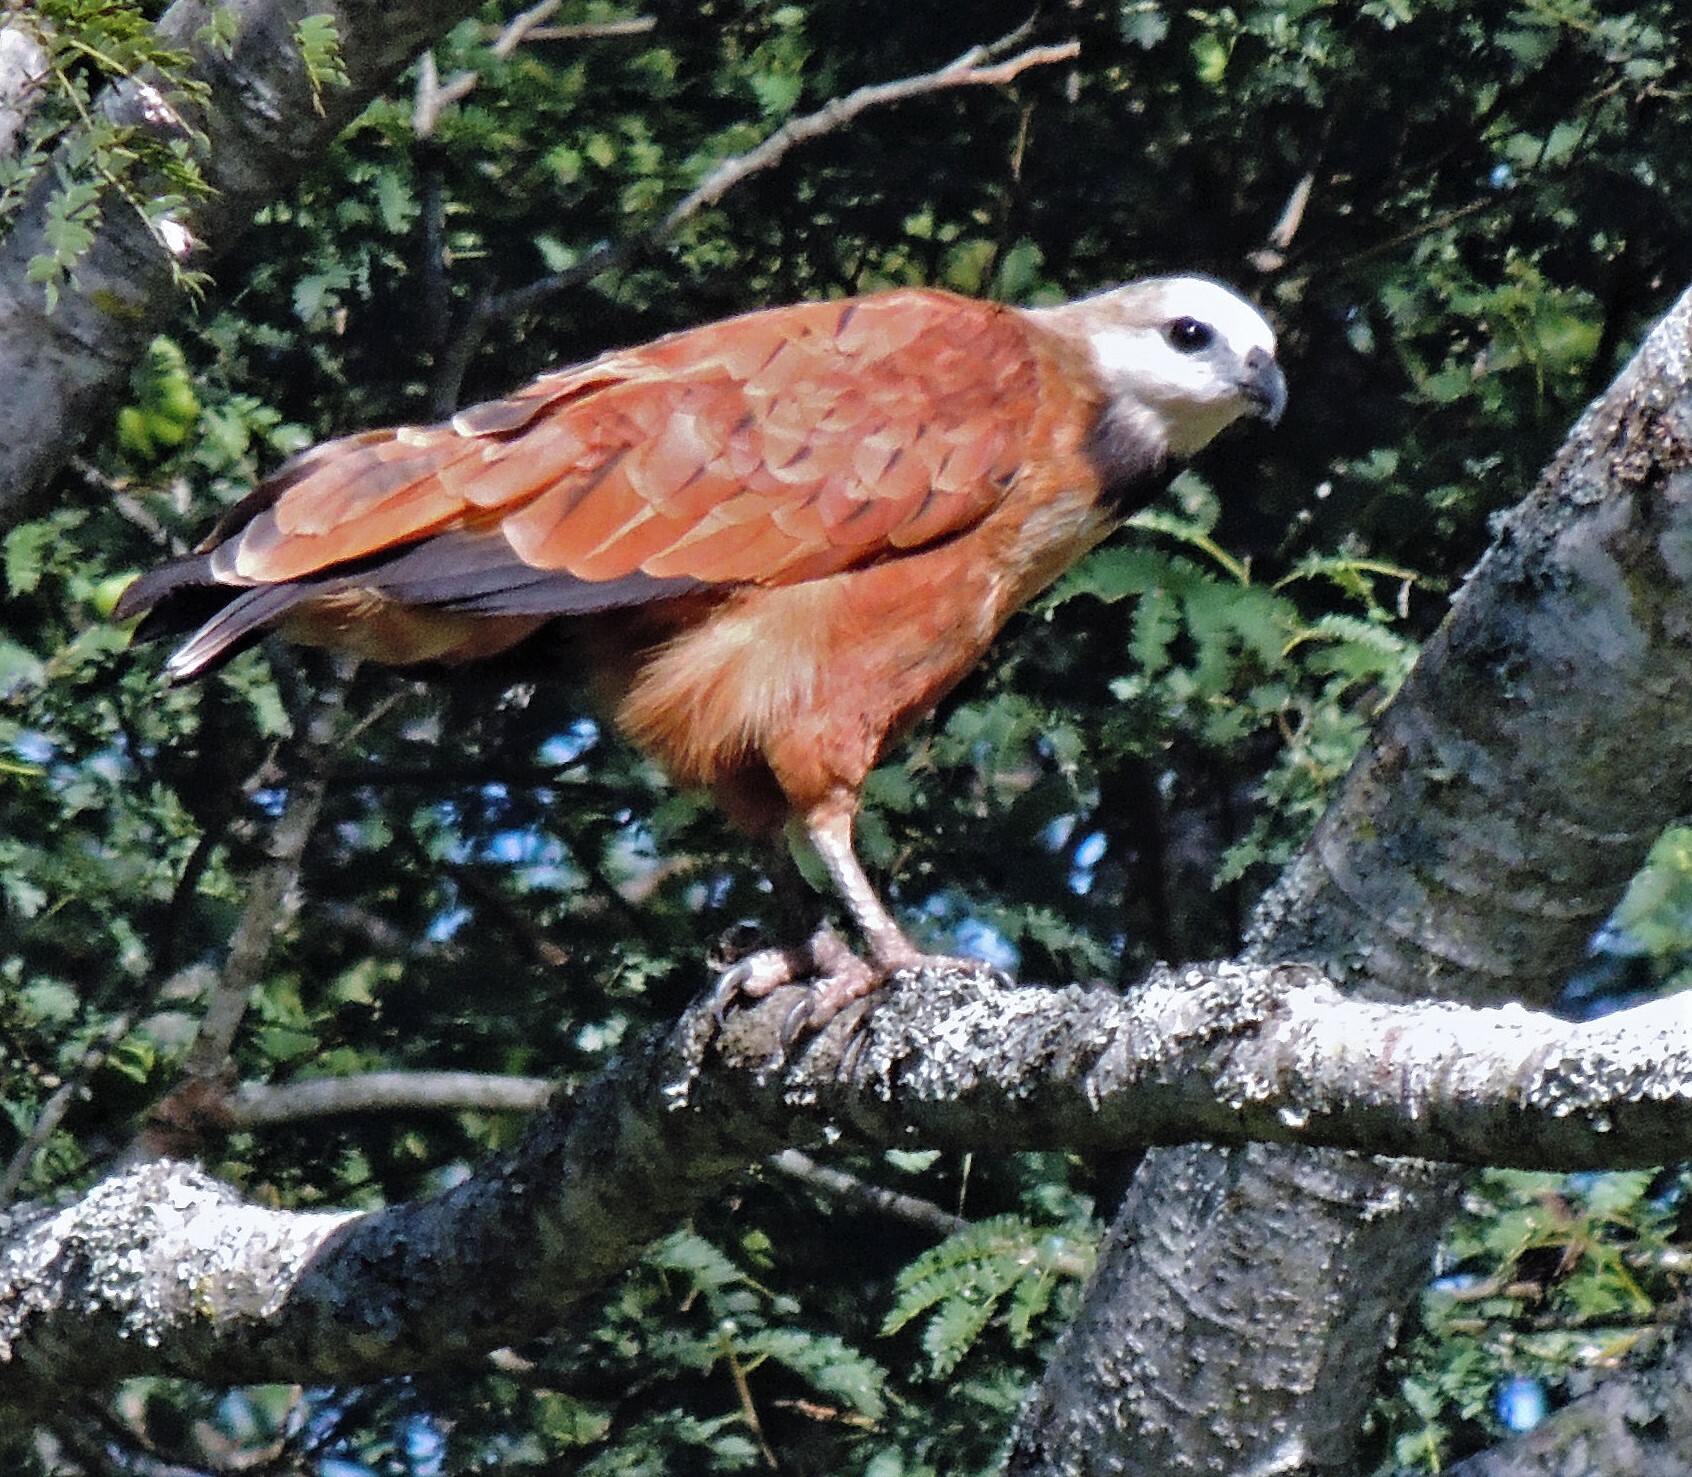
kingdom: Animalia
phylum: Chordata
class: Aves
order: Accipitriformes
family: Accipitridae
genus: Busarellus
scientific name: Busarellus nigricollis
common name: Black-collared hawk
